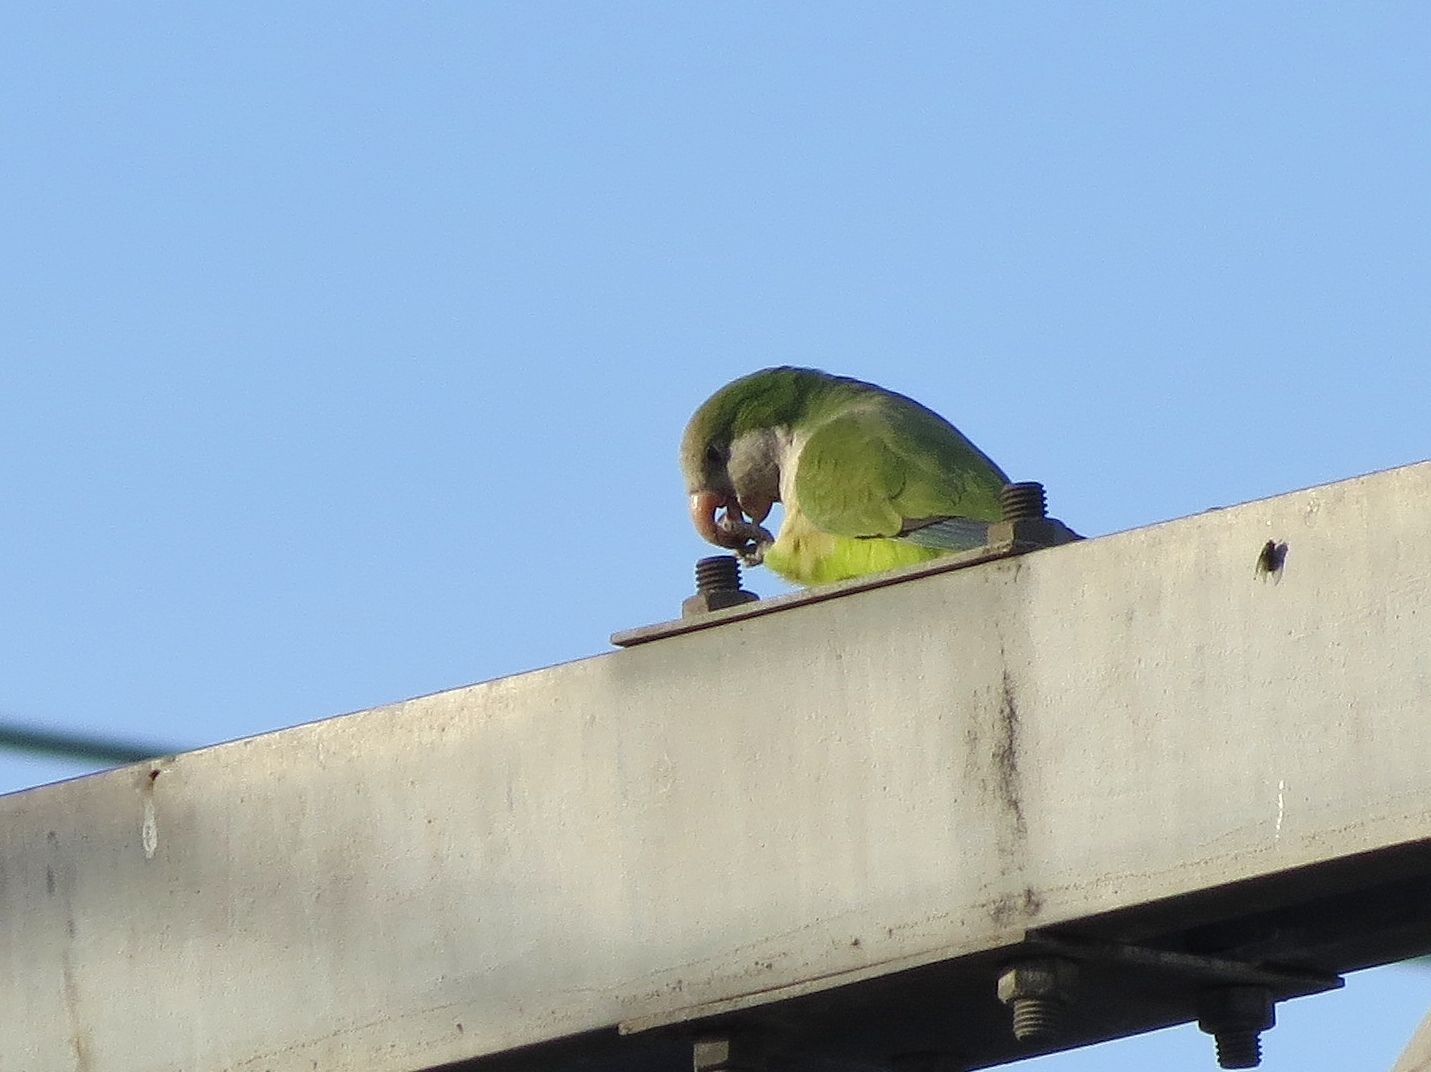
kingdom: Animalia
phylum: Chordata
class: Aves
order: Psittaciformes
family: Psittacidae
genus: Myiopsitta
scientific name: Myiopsitta monachus
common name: Monk parakeet
